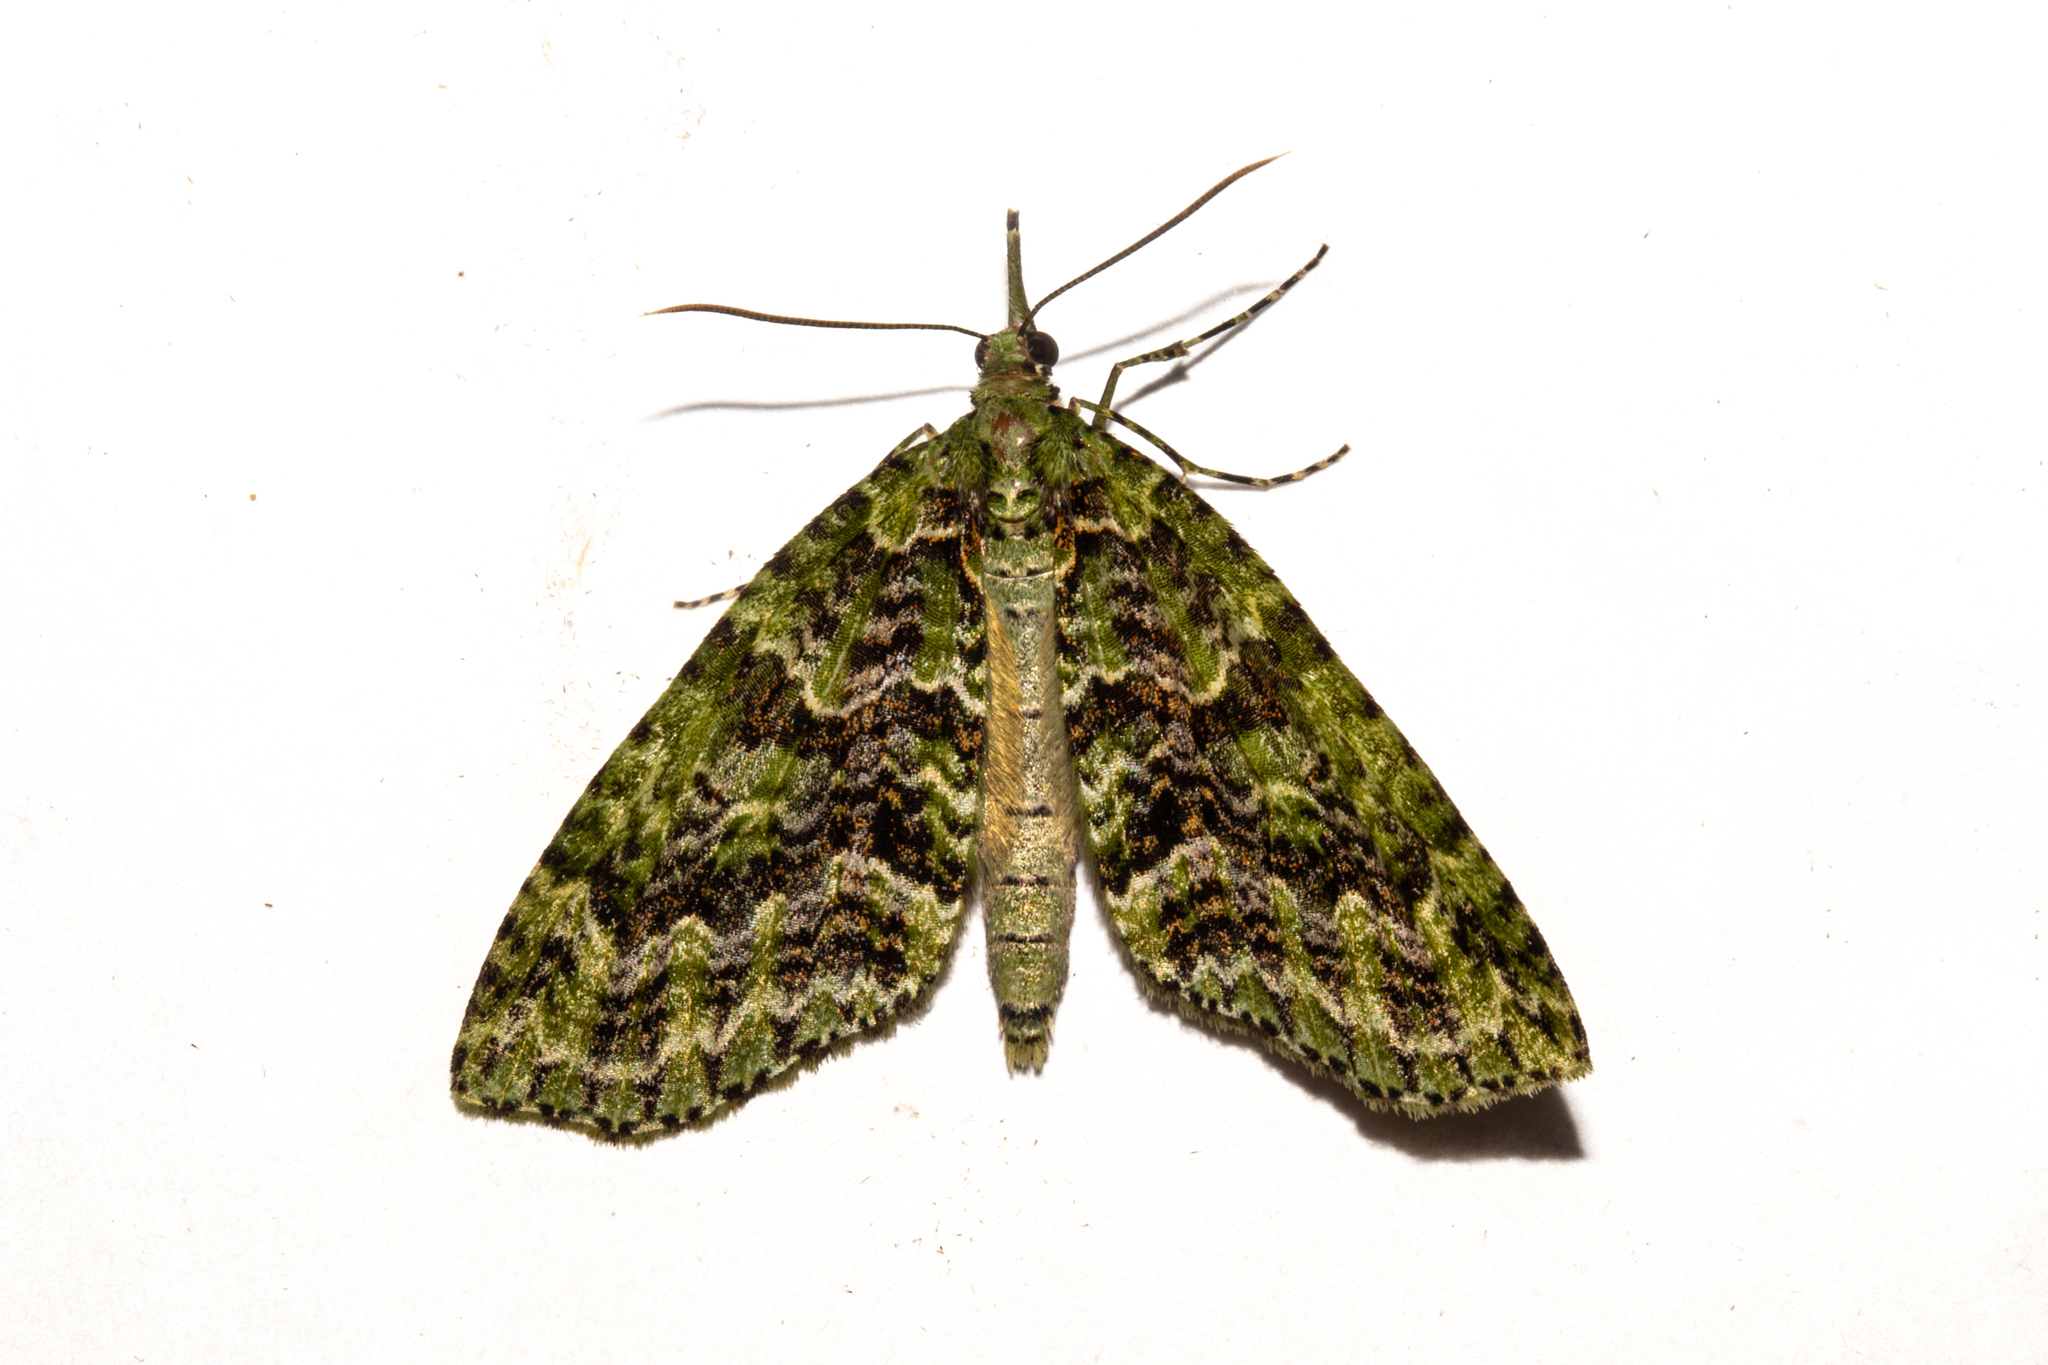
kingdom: Animalia
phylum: Arthropoda
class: Insecta
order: Lepidoptera
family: Geometridae
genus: Tatosoma
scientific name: Tatosoma tipulata
